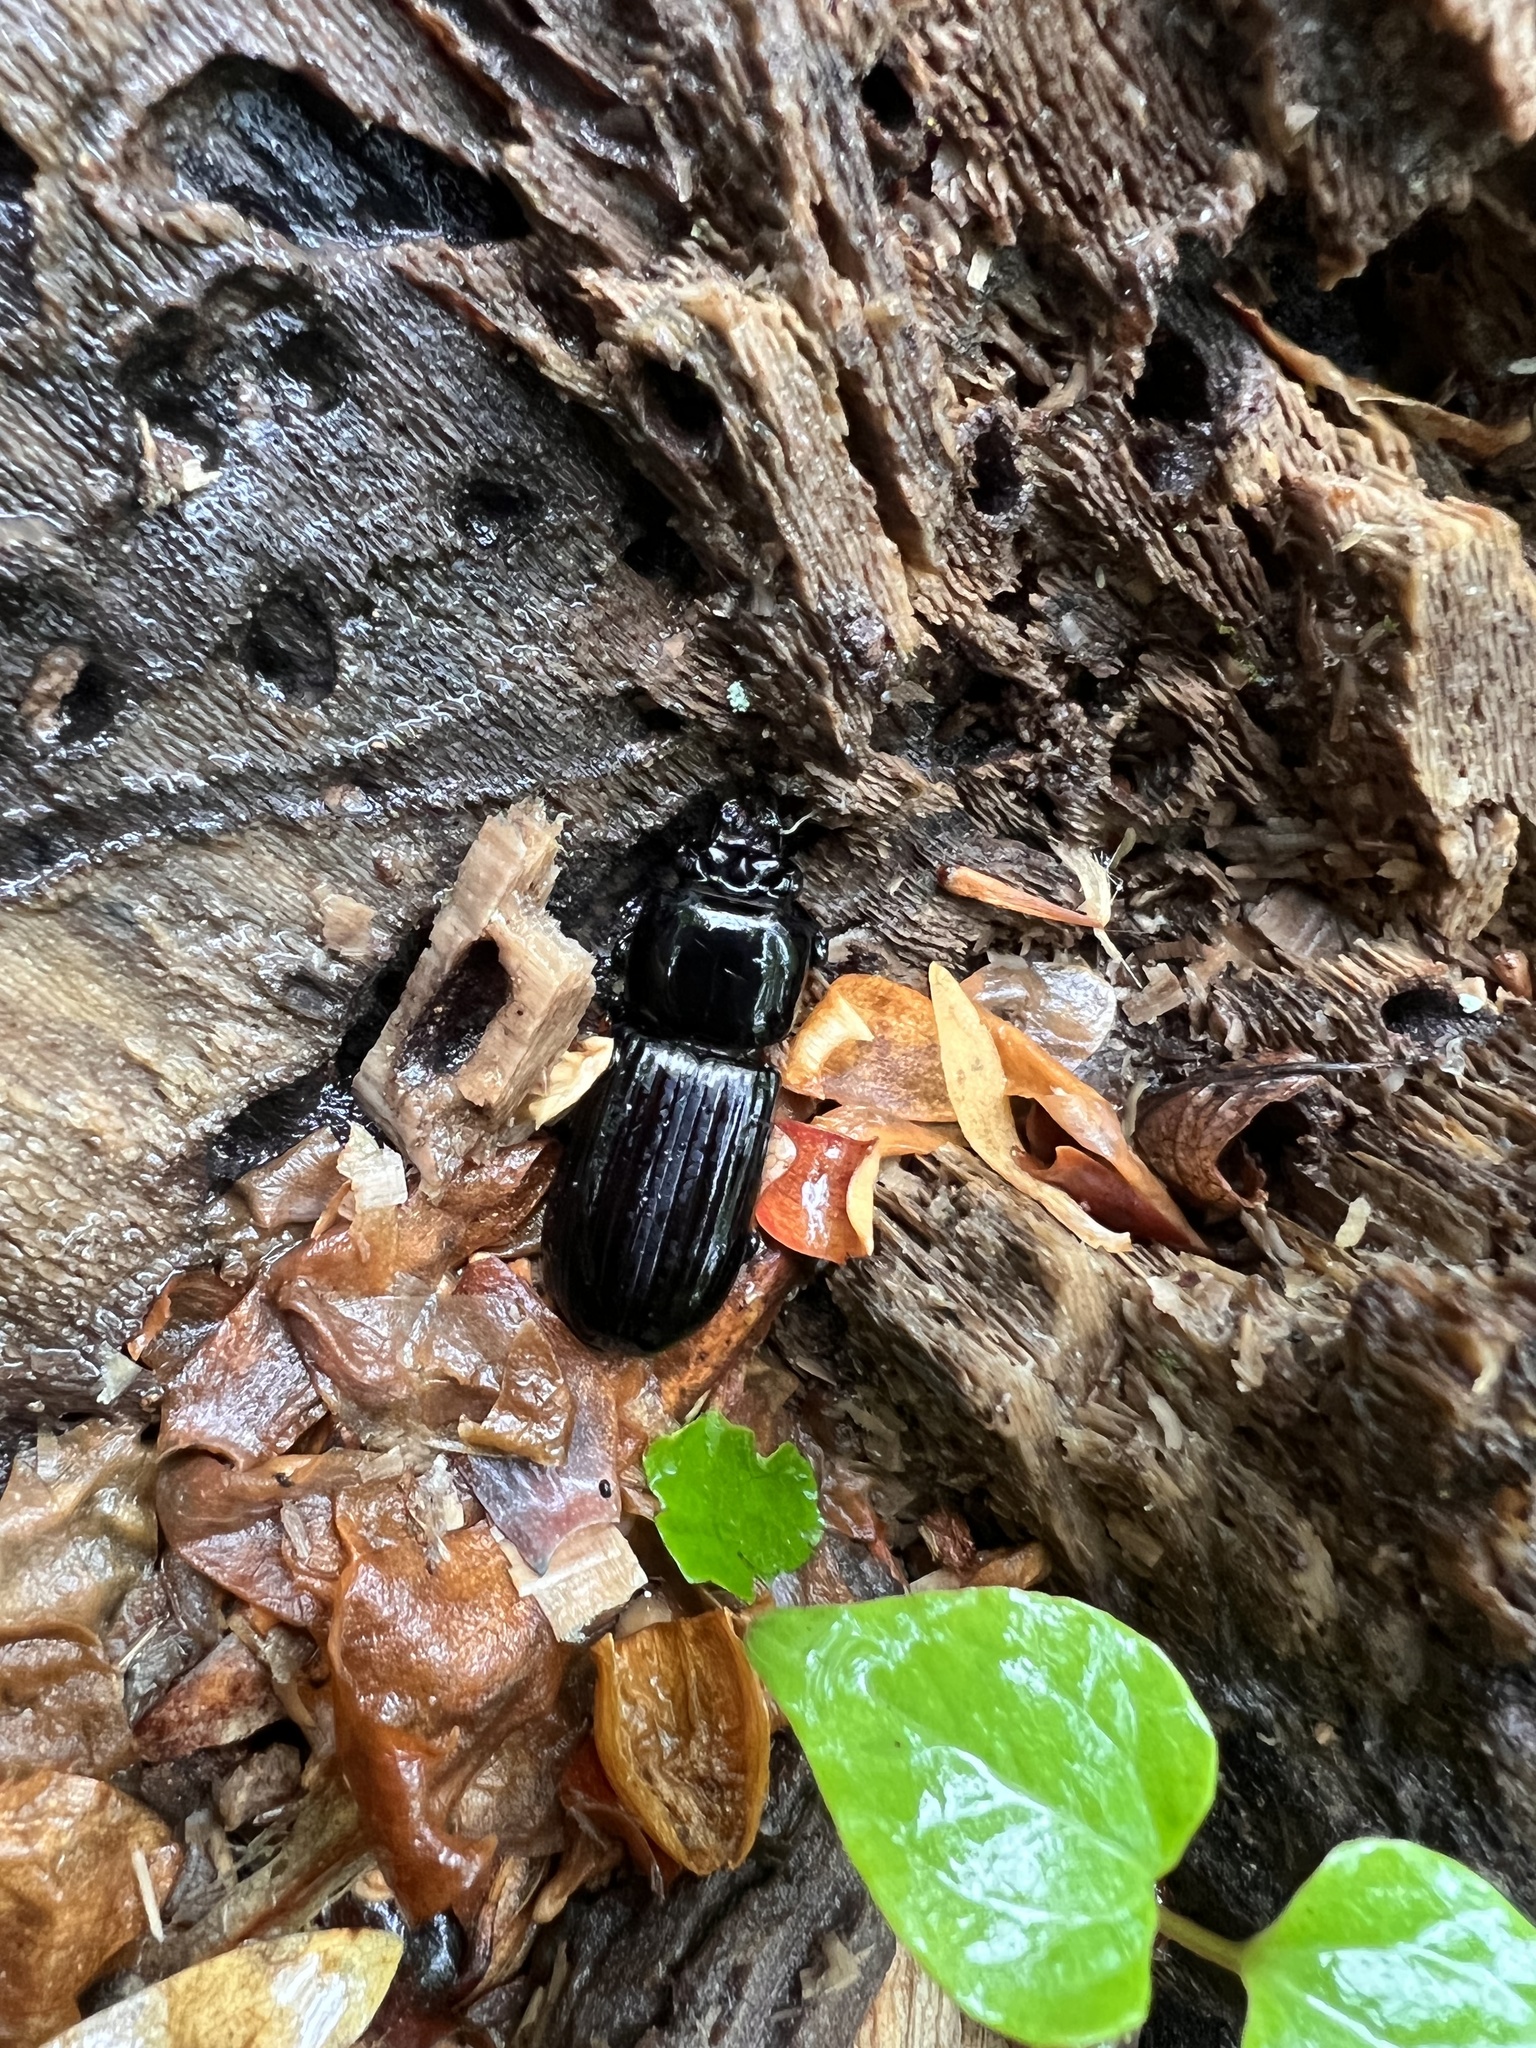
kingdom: Animalia
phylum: Arthropoda
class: Insecta
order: Coleoptera
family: Passalidae
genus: Odontotaenius
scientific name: Odontotaenius disjunctus
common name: Patent leather beetle
